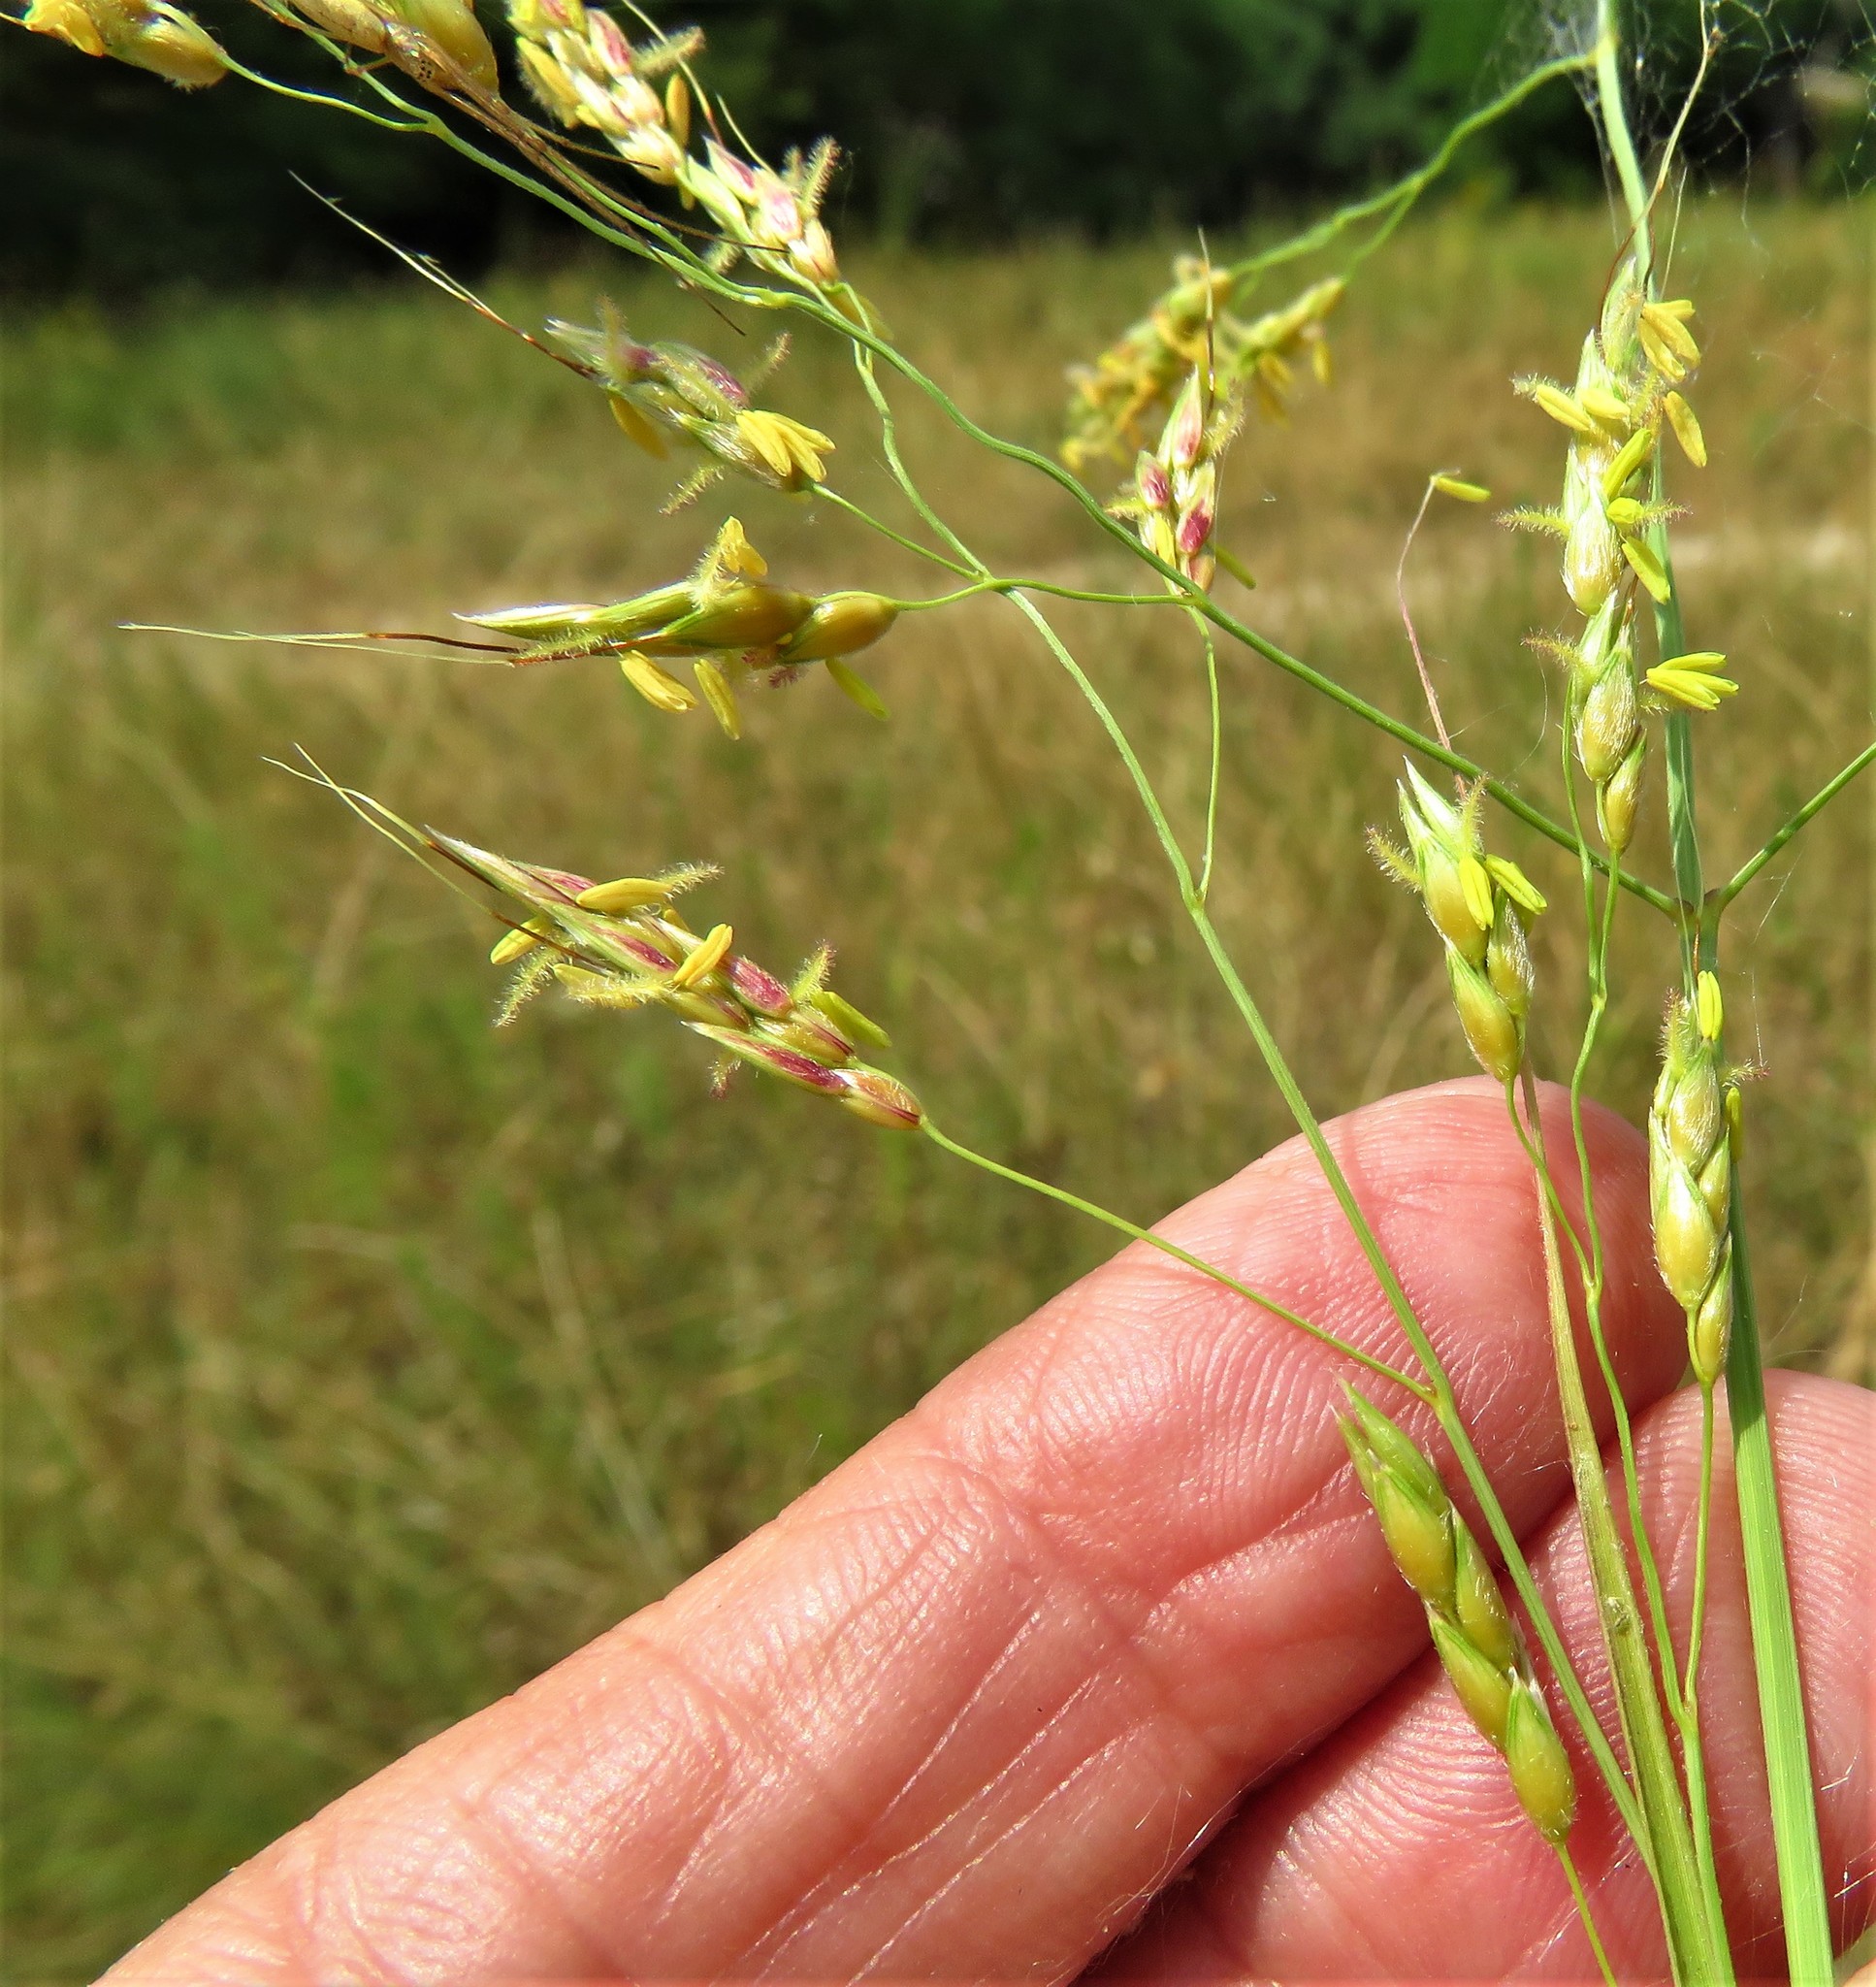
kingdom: Plantae
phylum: Tracheophyta
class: Liliopsida
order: Poales
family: Poaceae
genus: Sorghum
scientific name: Sorghum halepense
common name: Johnson-grass
